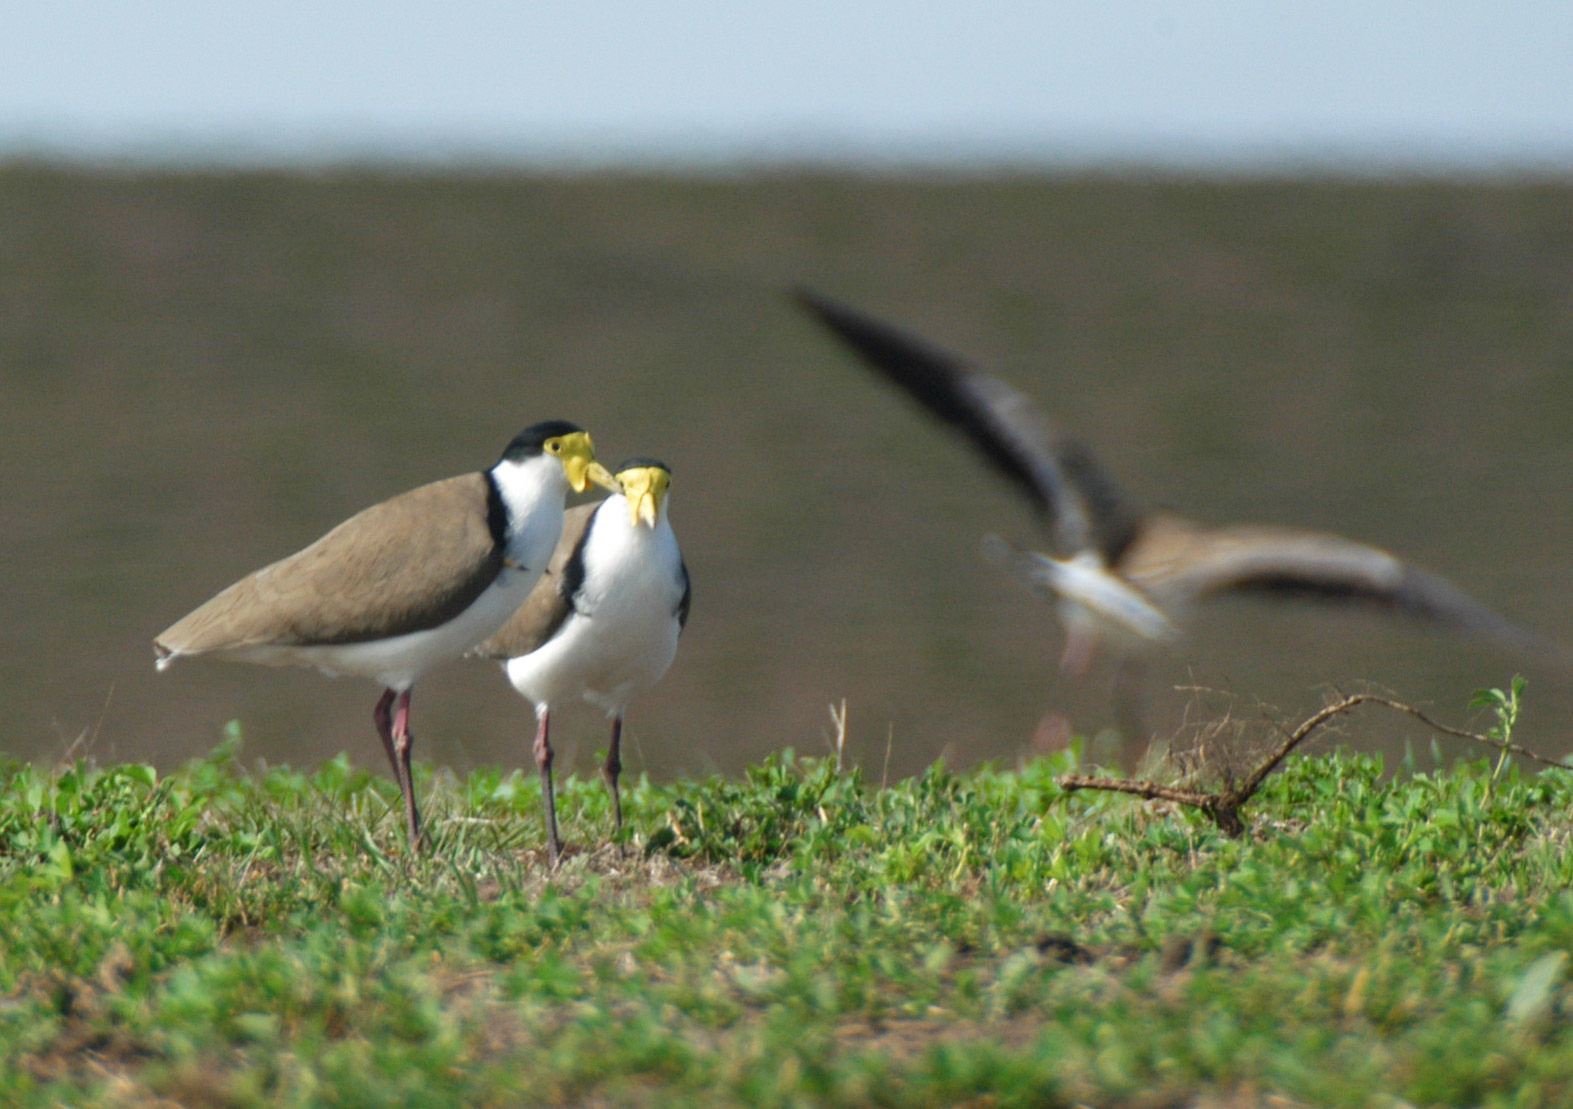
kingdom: Animalia
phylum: Chordata
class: Aves
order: Charadriiformes
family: Charadriidae
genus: Vanellus
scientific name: Vanellus miles
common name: Masked lapwing
